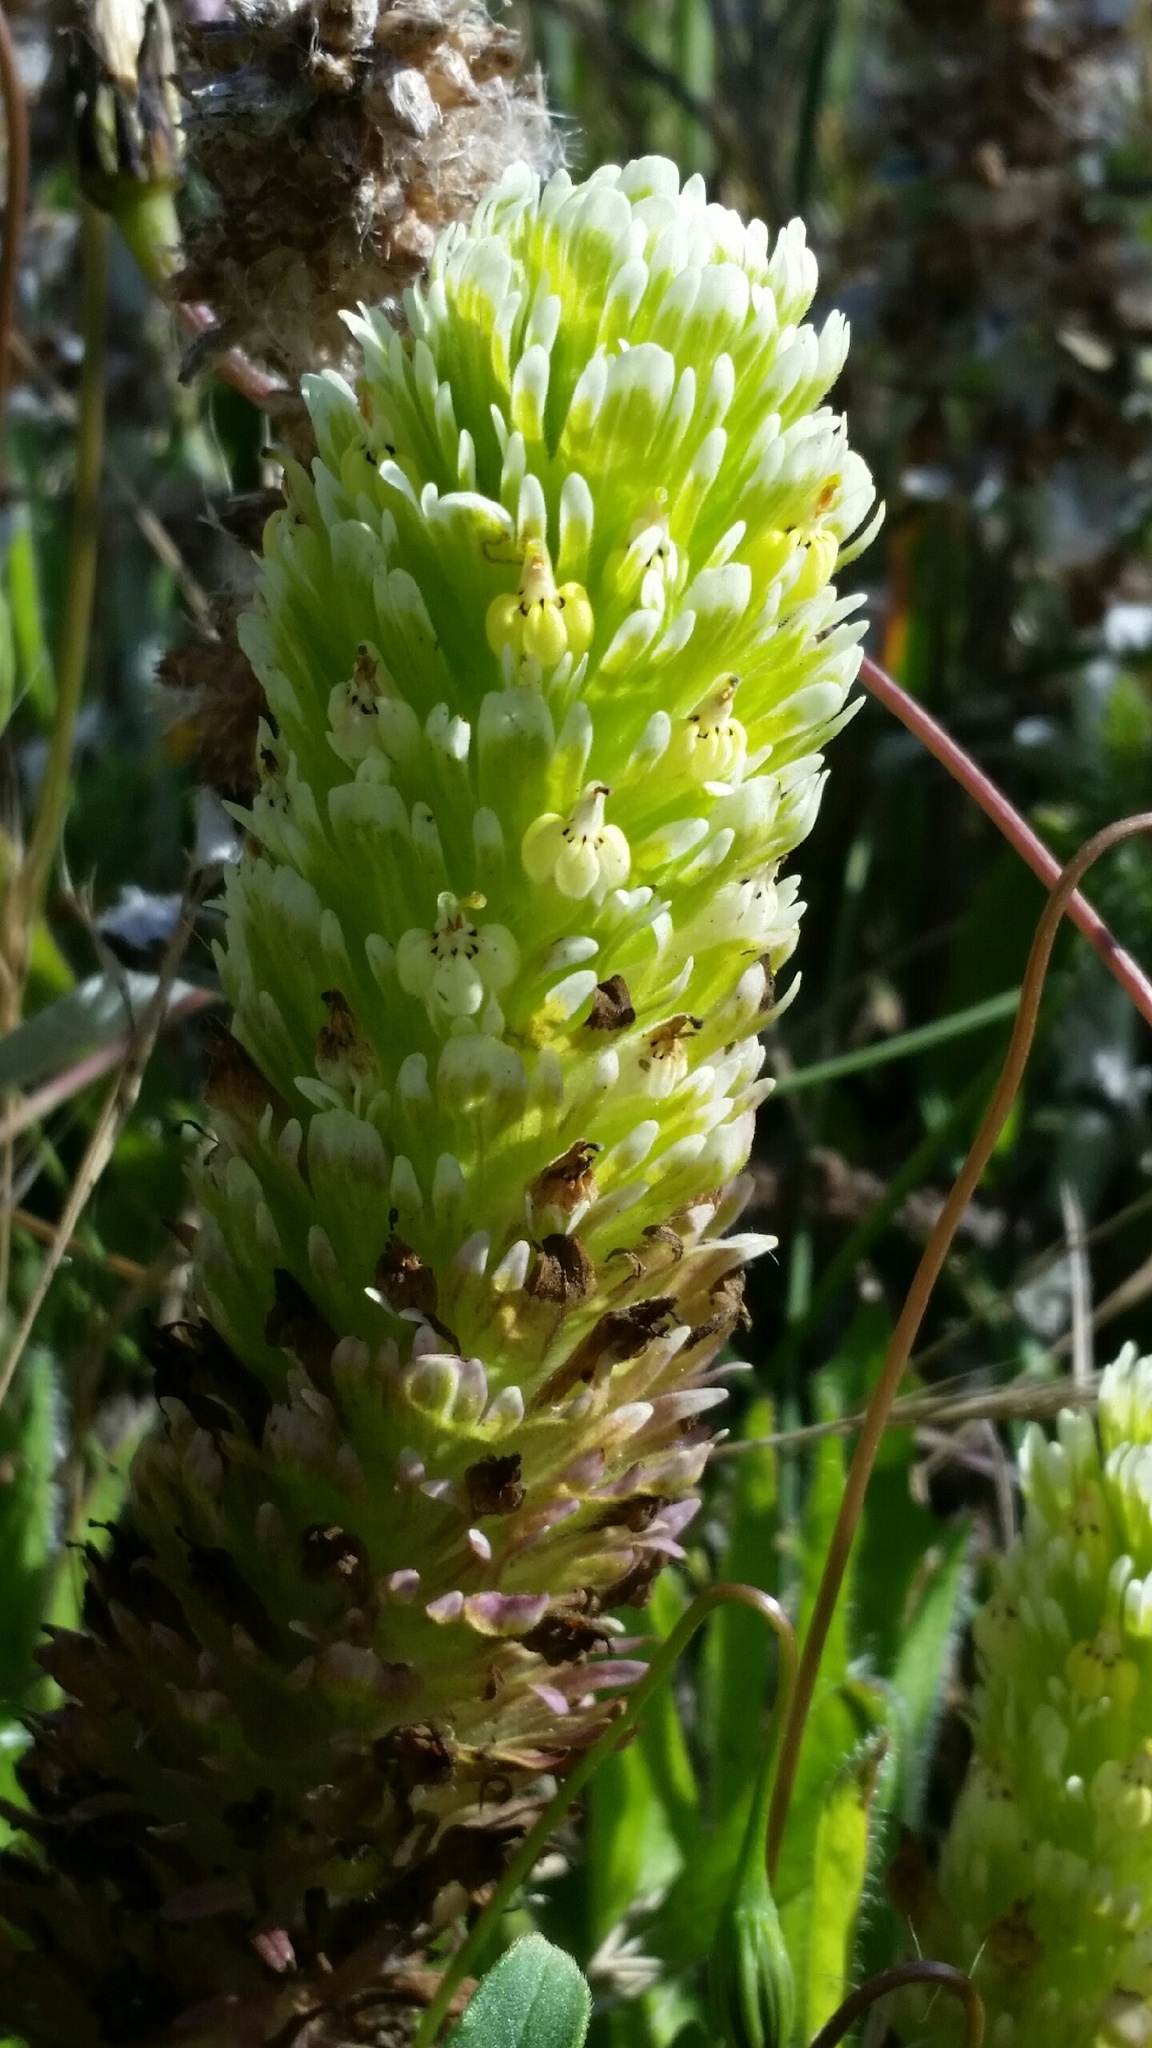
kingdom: Plantae
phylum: Tracheophyta
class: Magnoliopsida
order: Lamiales
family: Orobanchaceae
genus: Castilleja
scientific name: Castilleja ambigua
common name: Johnny-nip
